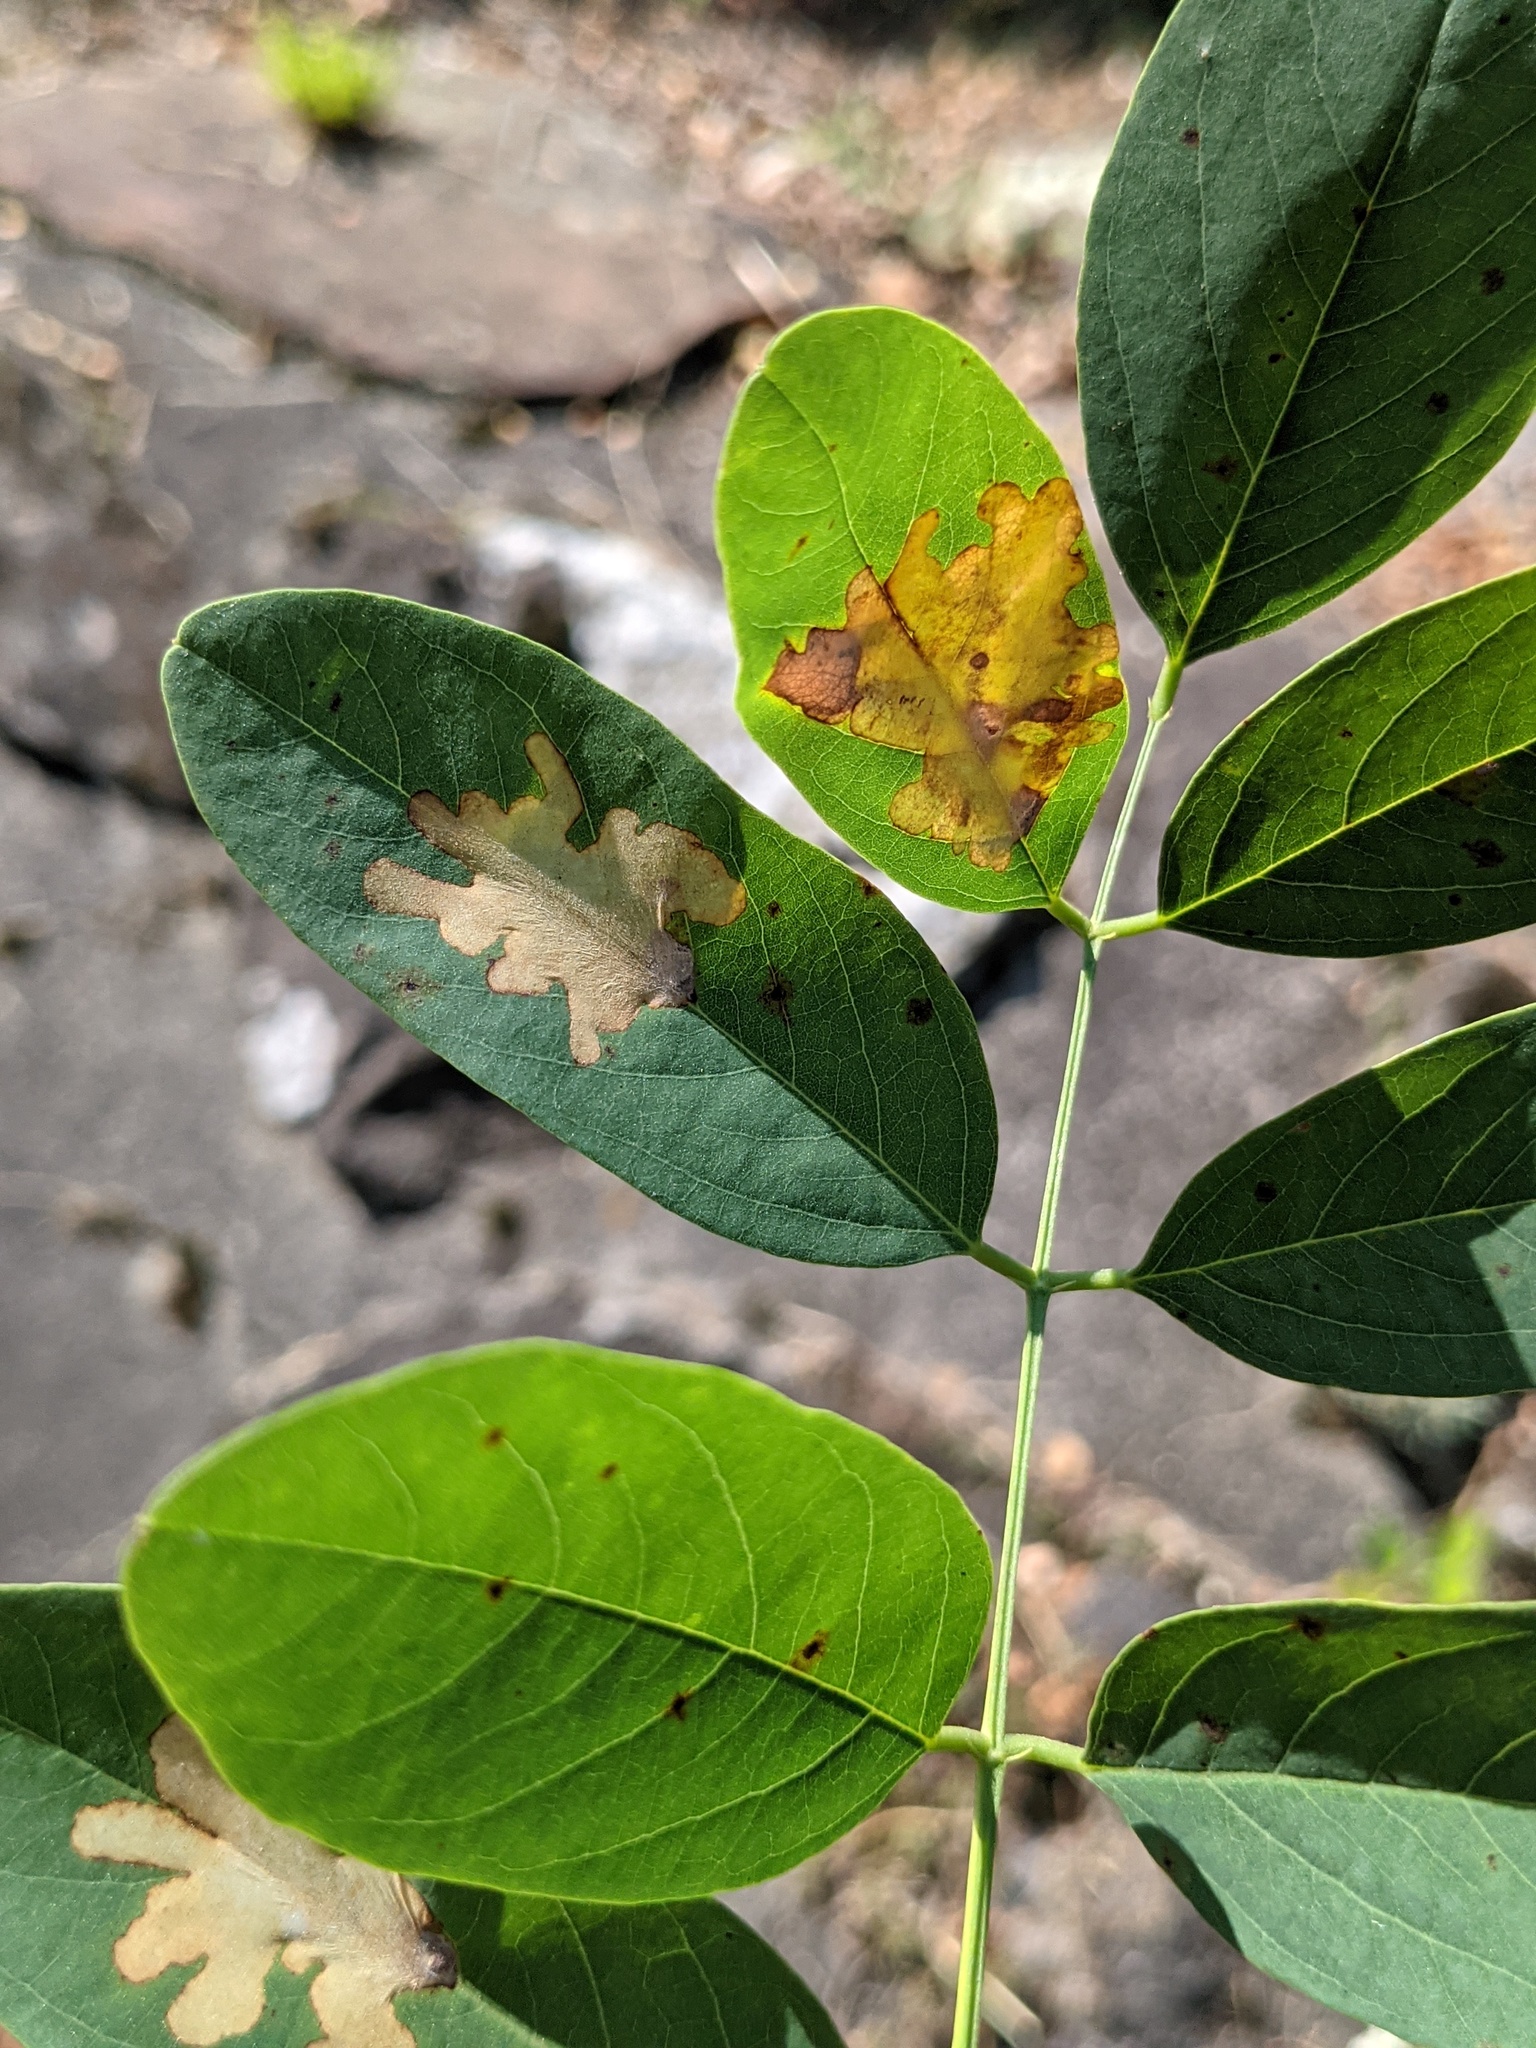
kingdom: Animalia
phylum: Arthropoda
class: Insecta
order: Lepidoptera
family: Gracillariidae
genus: Parectopa
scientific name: Parectopa robiniella
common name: Locust digitate leafminer
